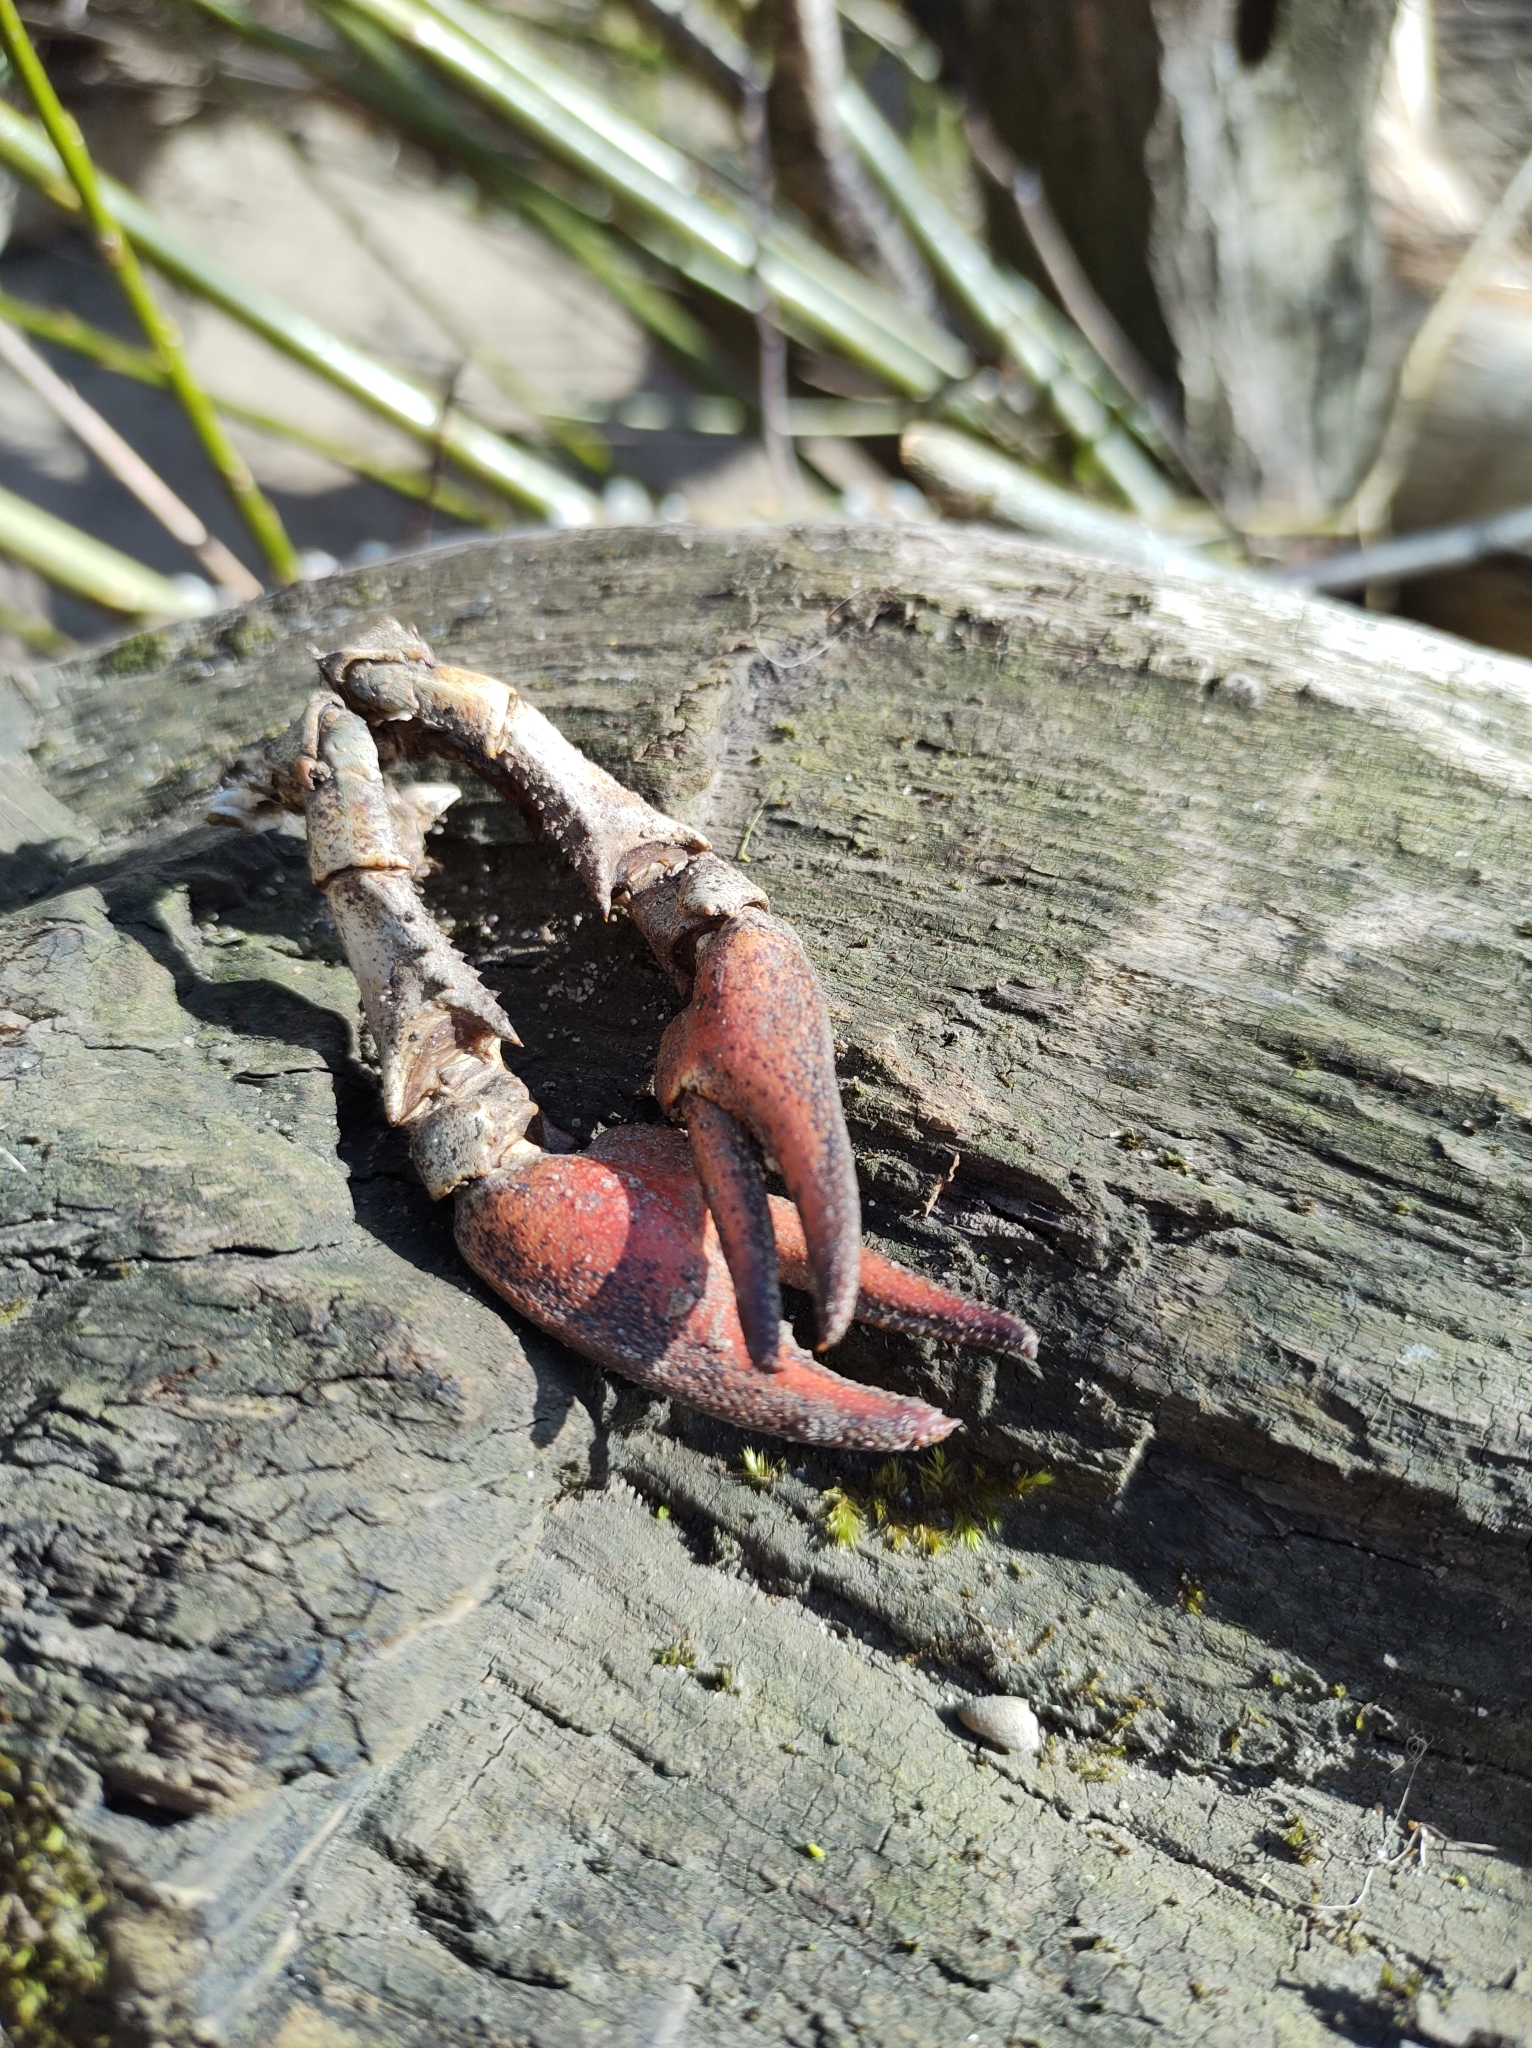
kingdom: Animalia
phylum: Arthropoda
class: Malacostraca
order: Decapoda
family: Astacidae
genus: Pacifastacus
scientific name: Pacifastacus leniusculus
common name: Signal crayfish
